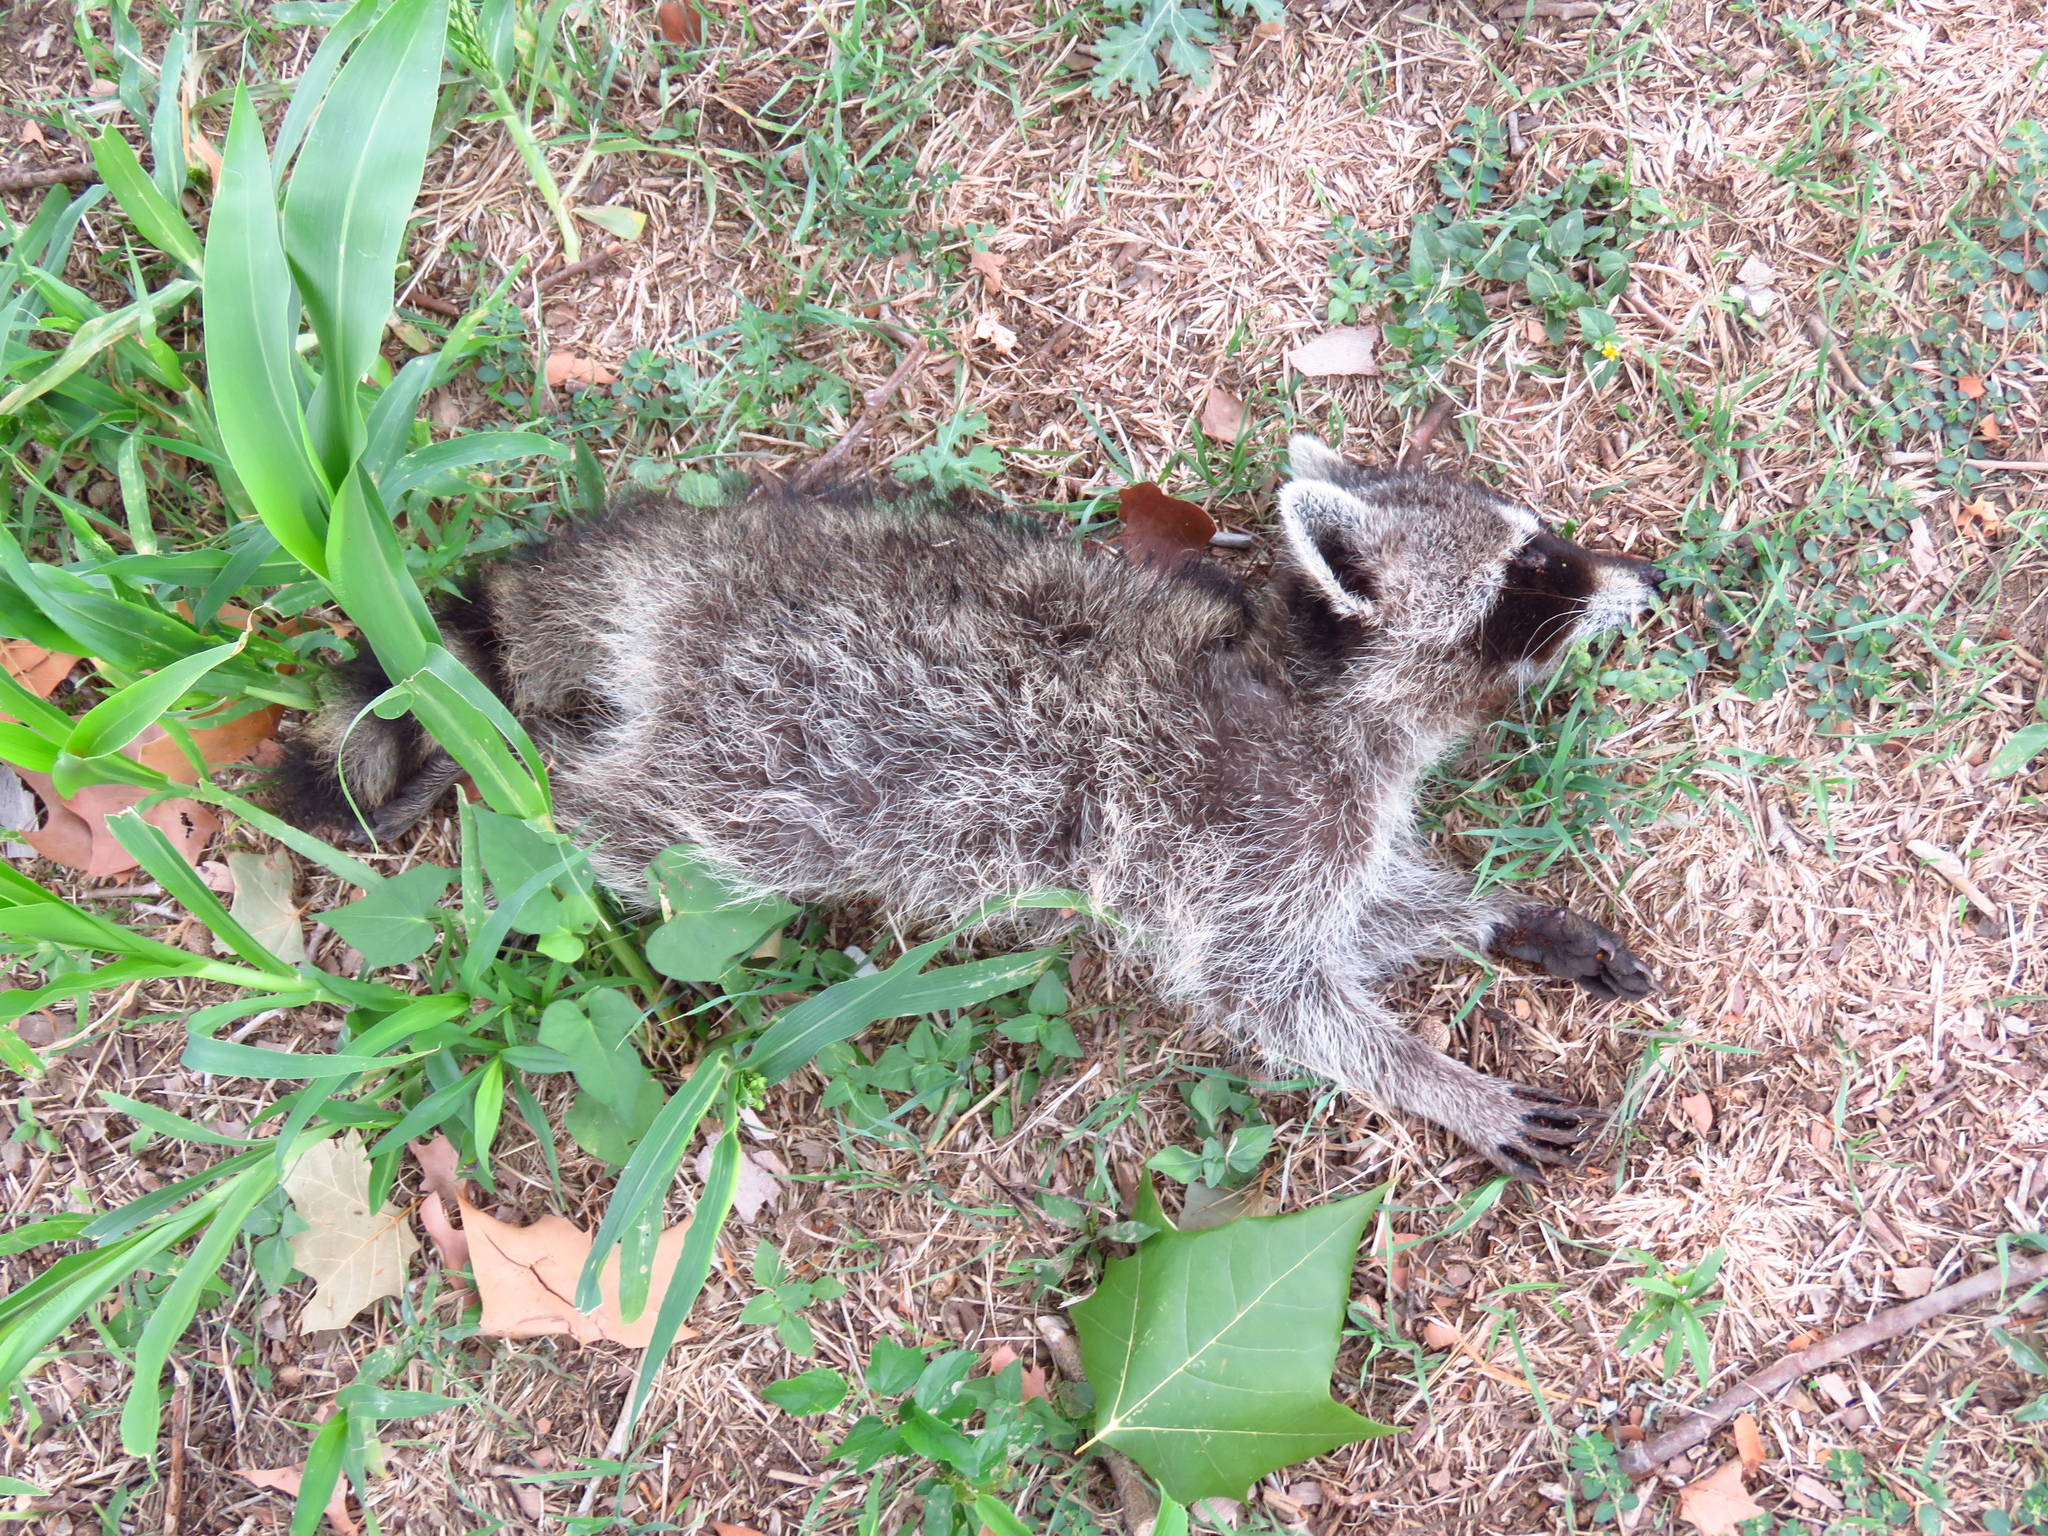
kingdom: Animalia
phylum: Chordata
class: Mammalia
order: Carnivora
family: Procyonidae
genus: Procyon
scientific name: Procyon lotor
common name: Raccoon
